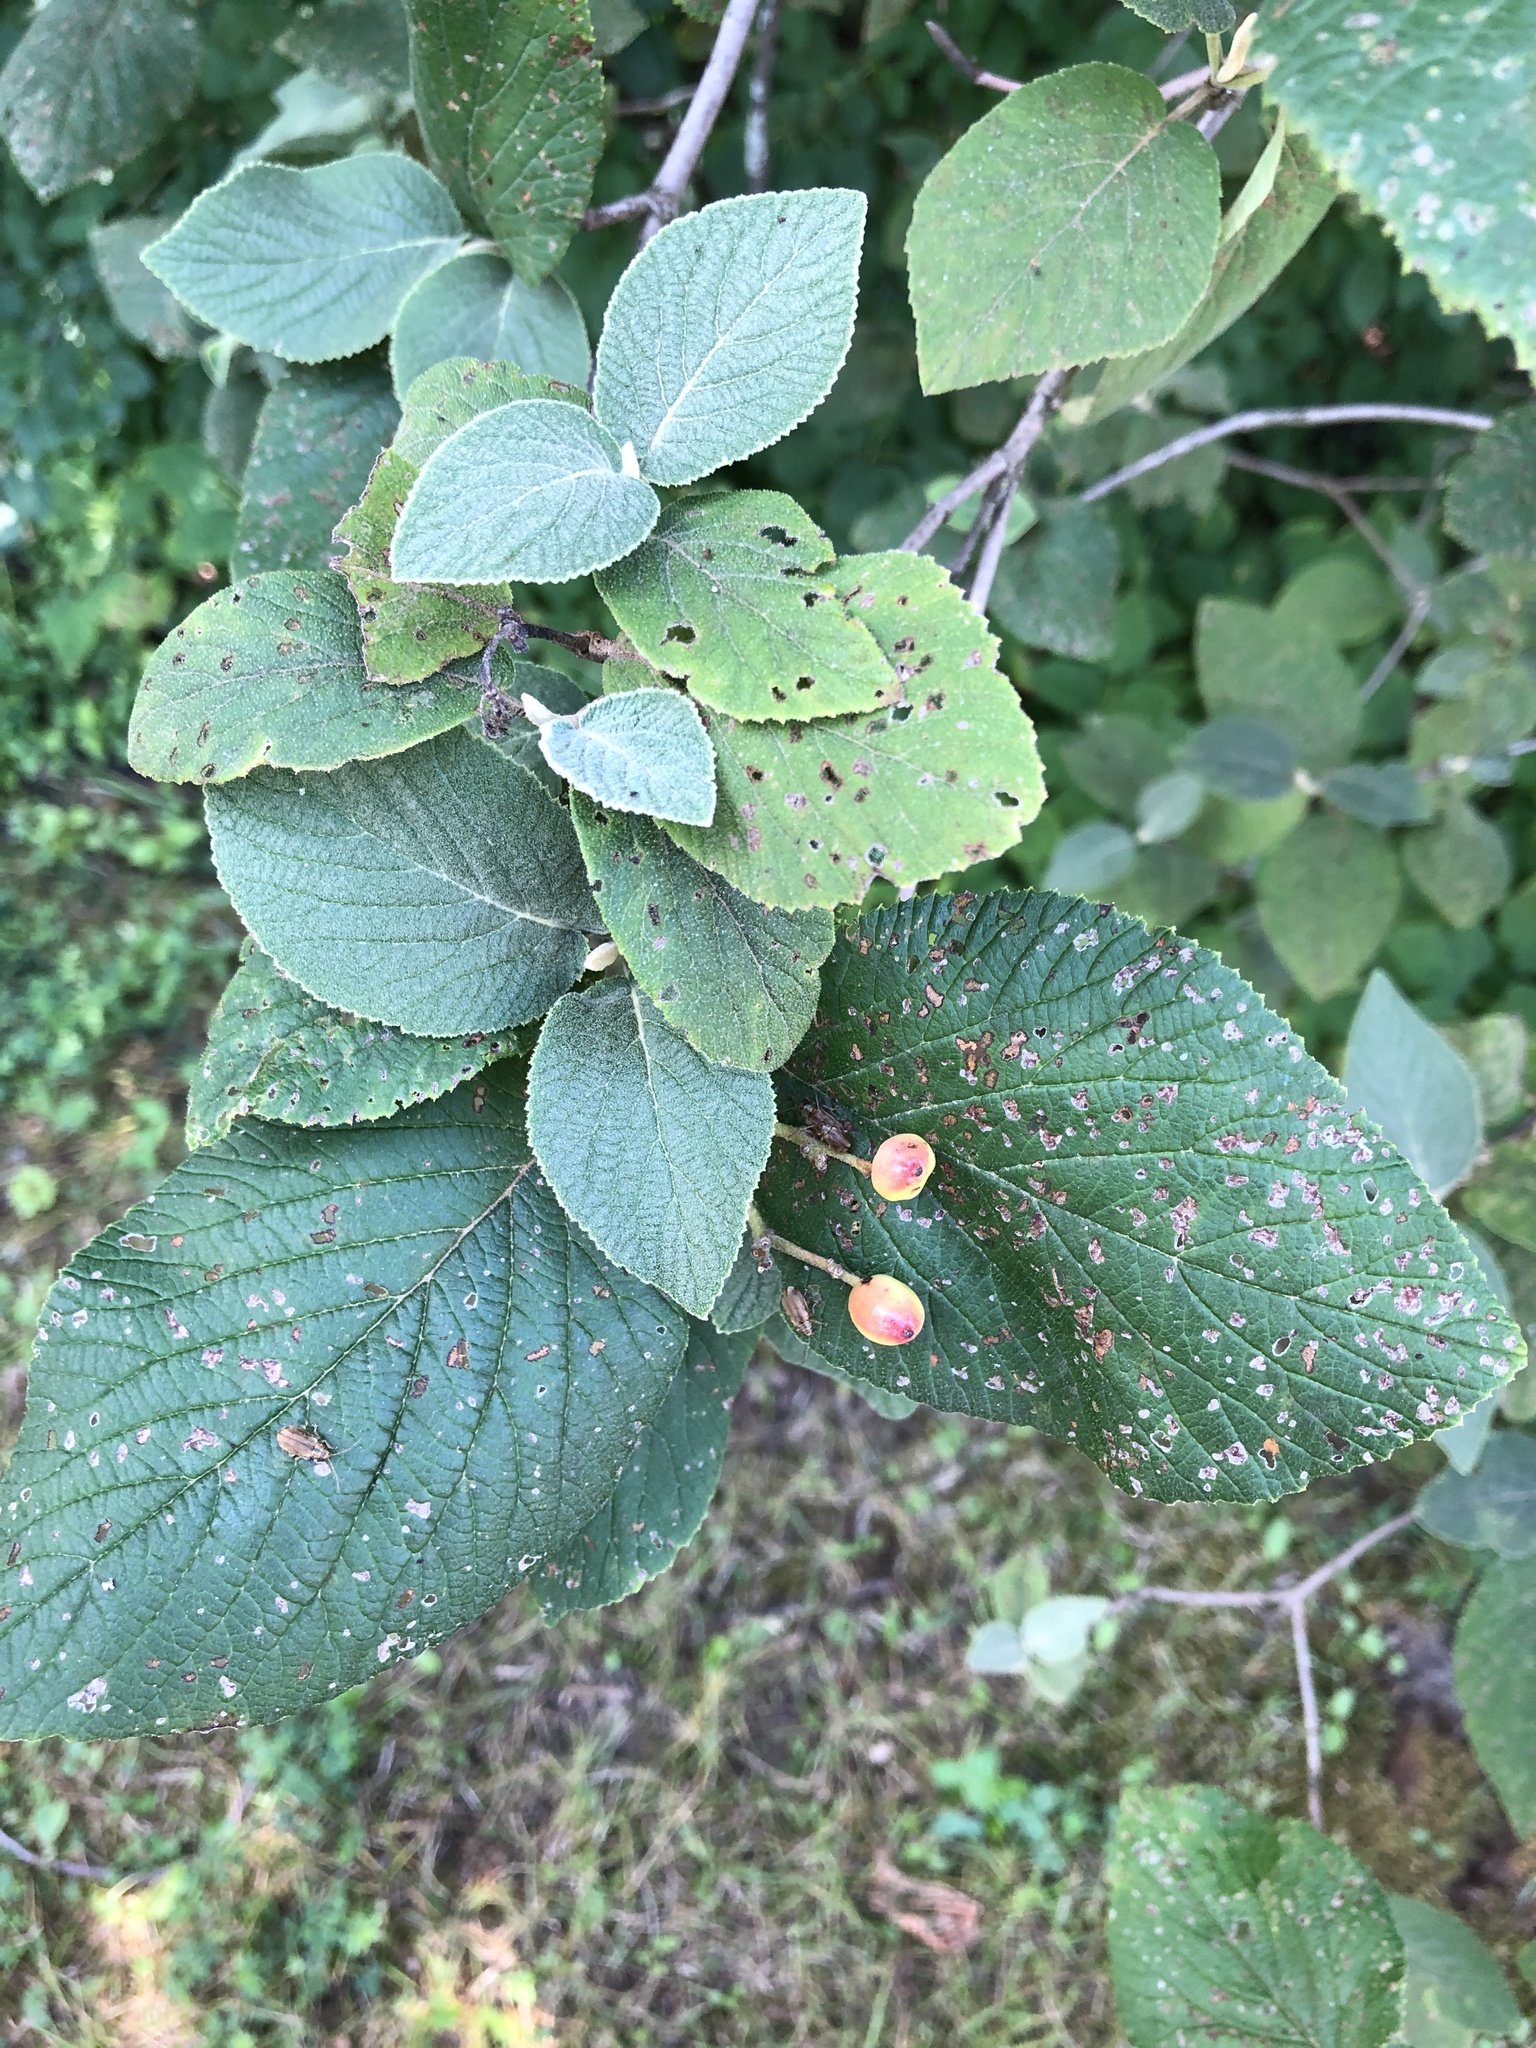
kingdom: Plantae
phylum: Tracheophyta
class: Magnoliopsida
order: Dipsacales
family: Viburnaceae
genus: Viburnum
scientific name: Viburnum lantana
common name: Wayfaring tree
